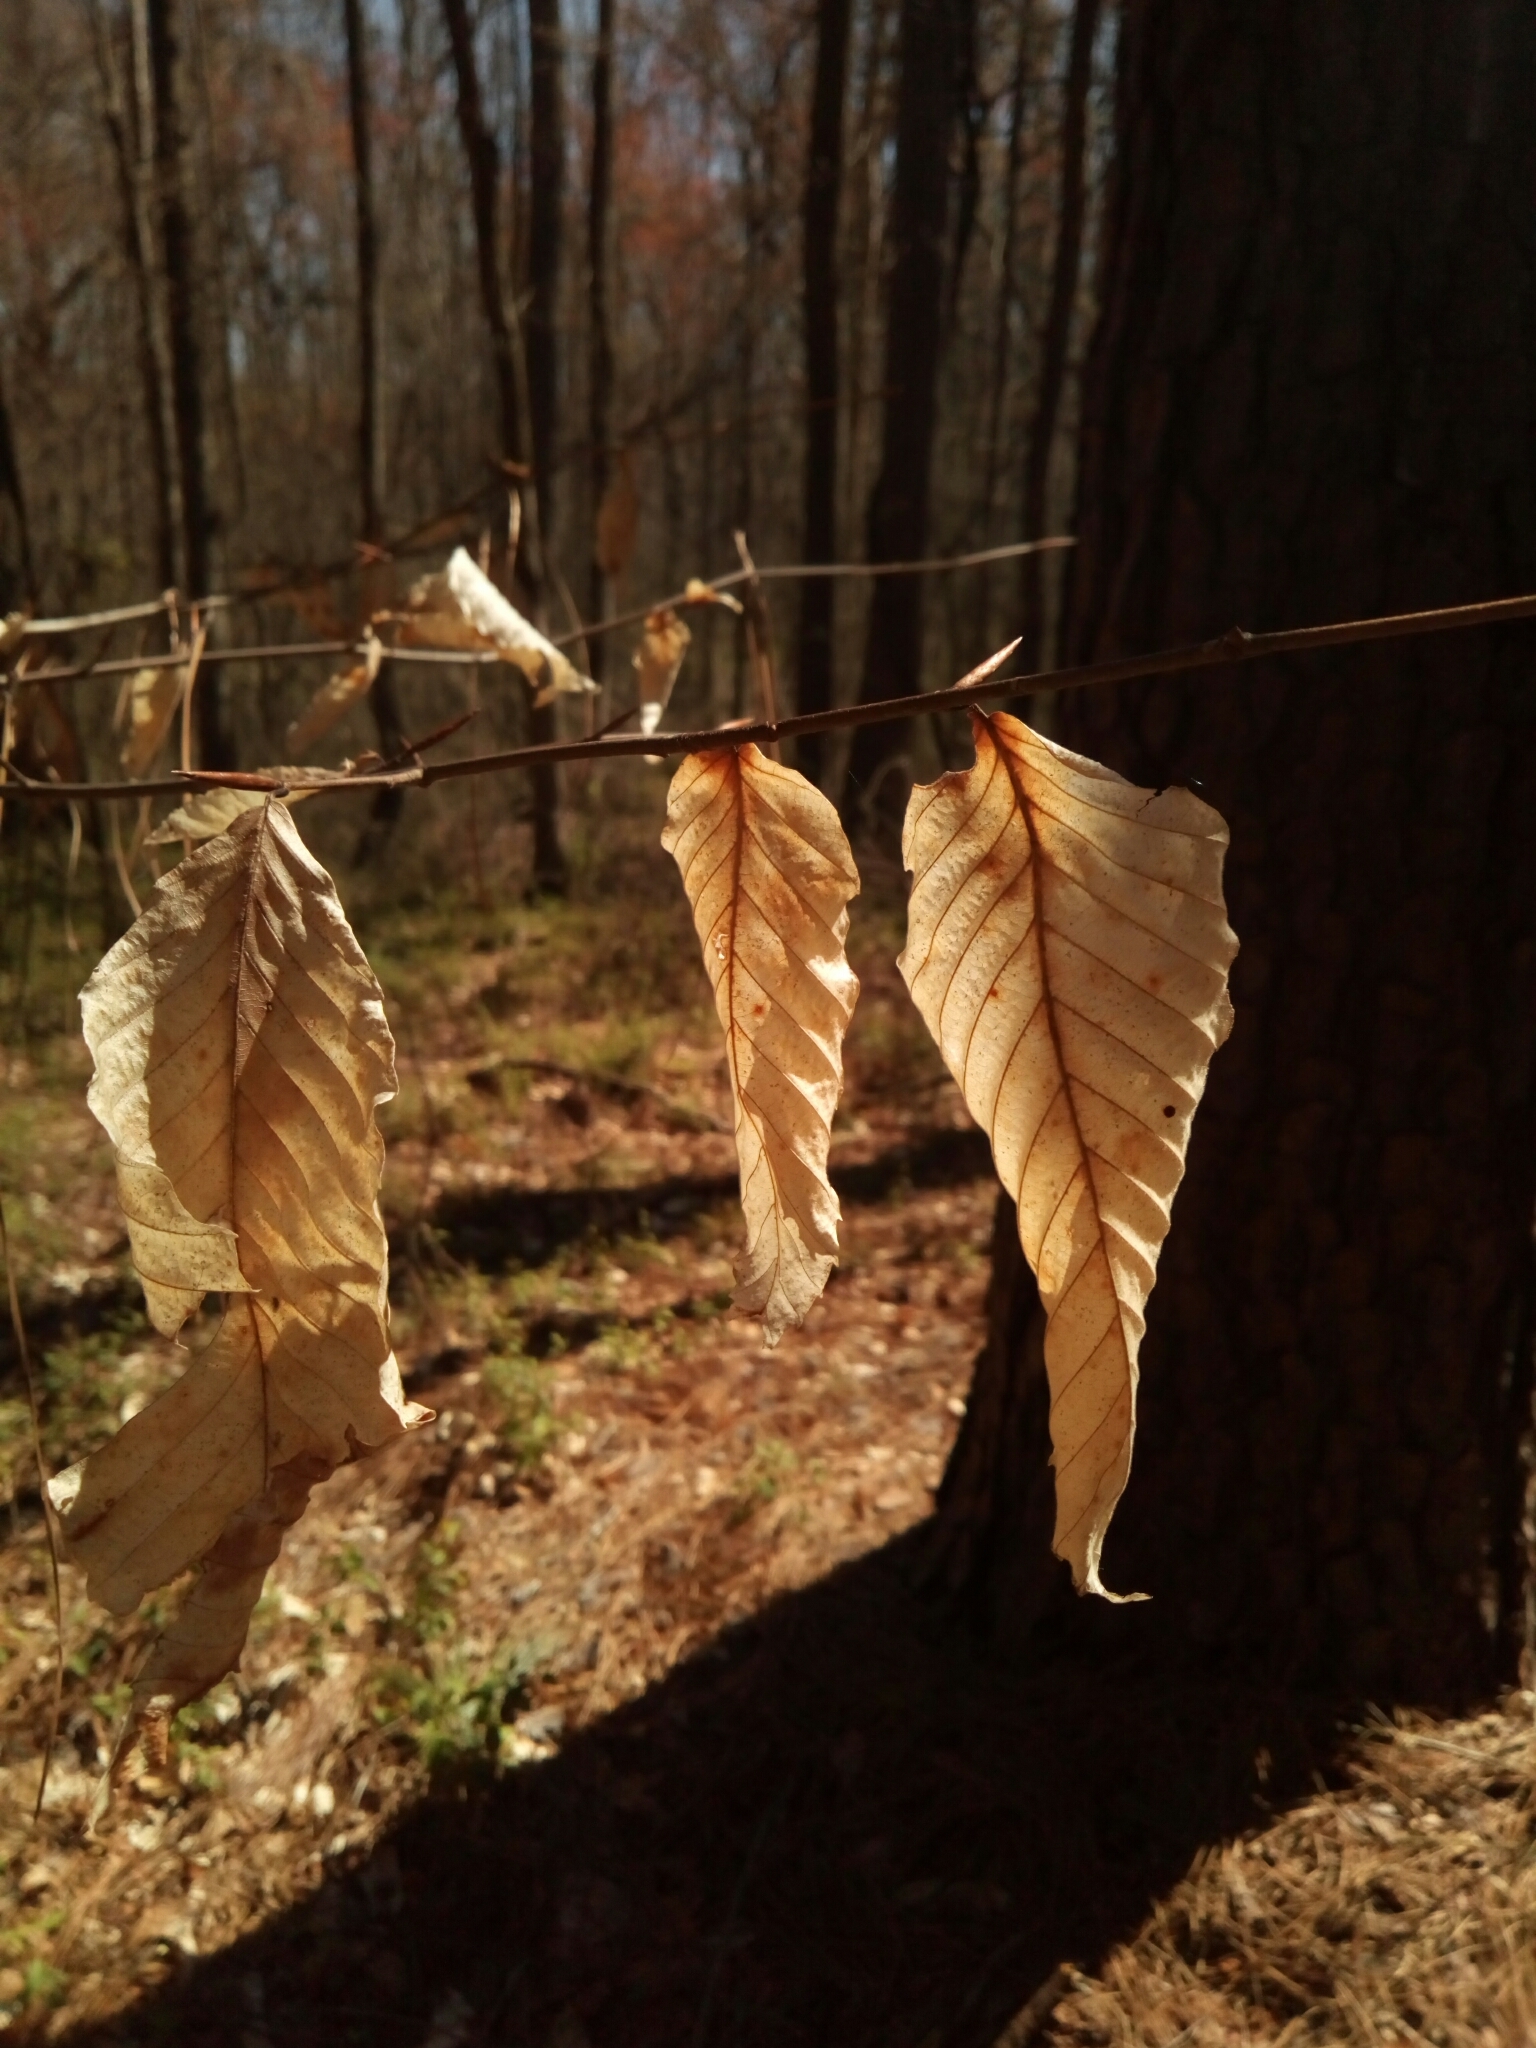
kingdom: Plantae
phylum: Tracheophyta
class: Magnoliopsida
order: Fagales
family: Fagaceae
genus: Fagus
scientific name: Fagus grandifolia
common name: American beech
